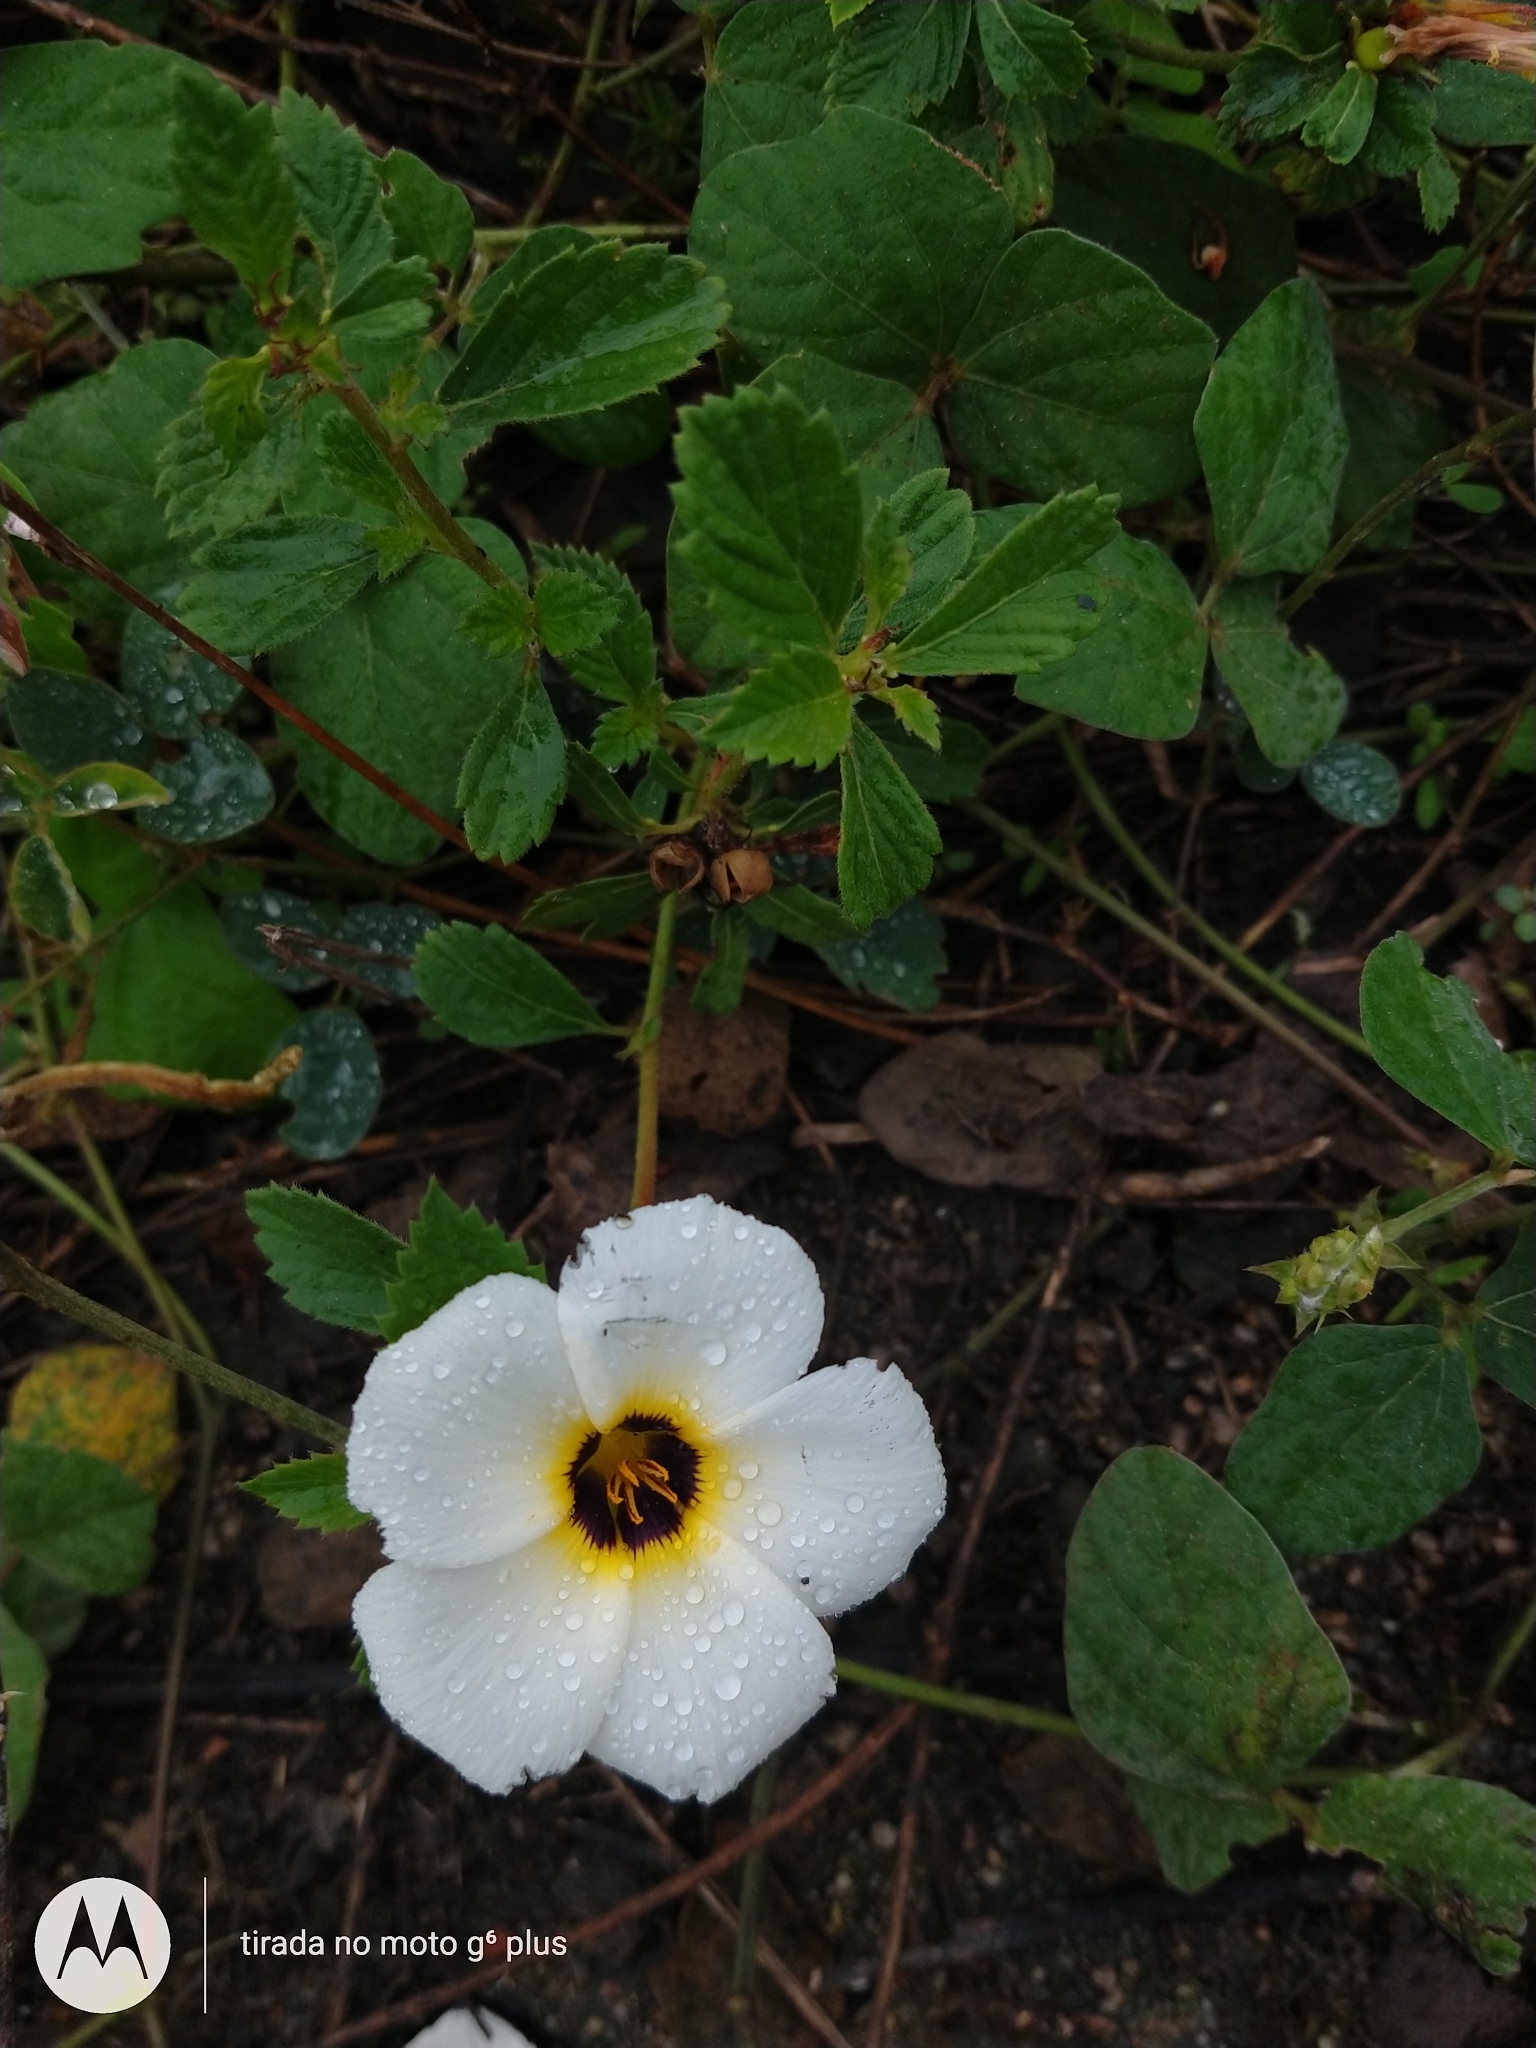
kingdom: Plantae
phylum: Tracheophyta
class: Magnoliopsida
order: Malpighiales
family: Turneraceae
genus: Turnera
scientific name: Turnera subulata
